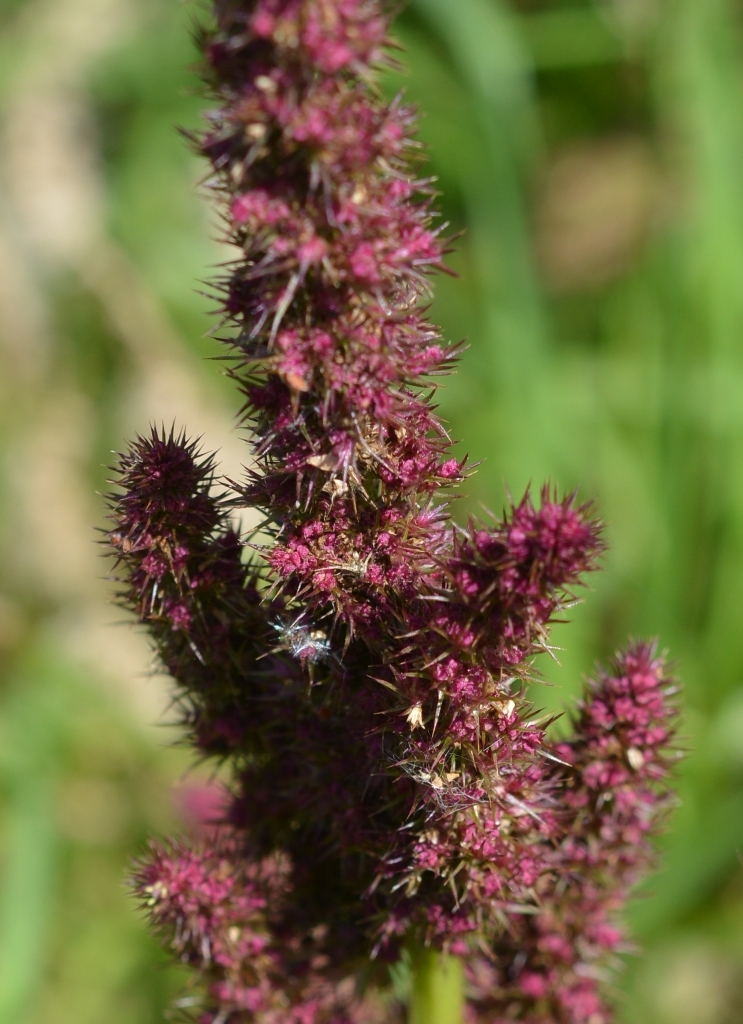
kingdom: Plantae
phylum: Tracheophyta
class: Magnoliopsida
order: Caryophyllales
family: Amaranthaceae
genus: Amaranthus
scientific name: Amaranthus hybridus
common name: Green amaranth
